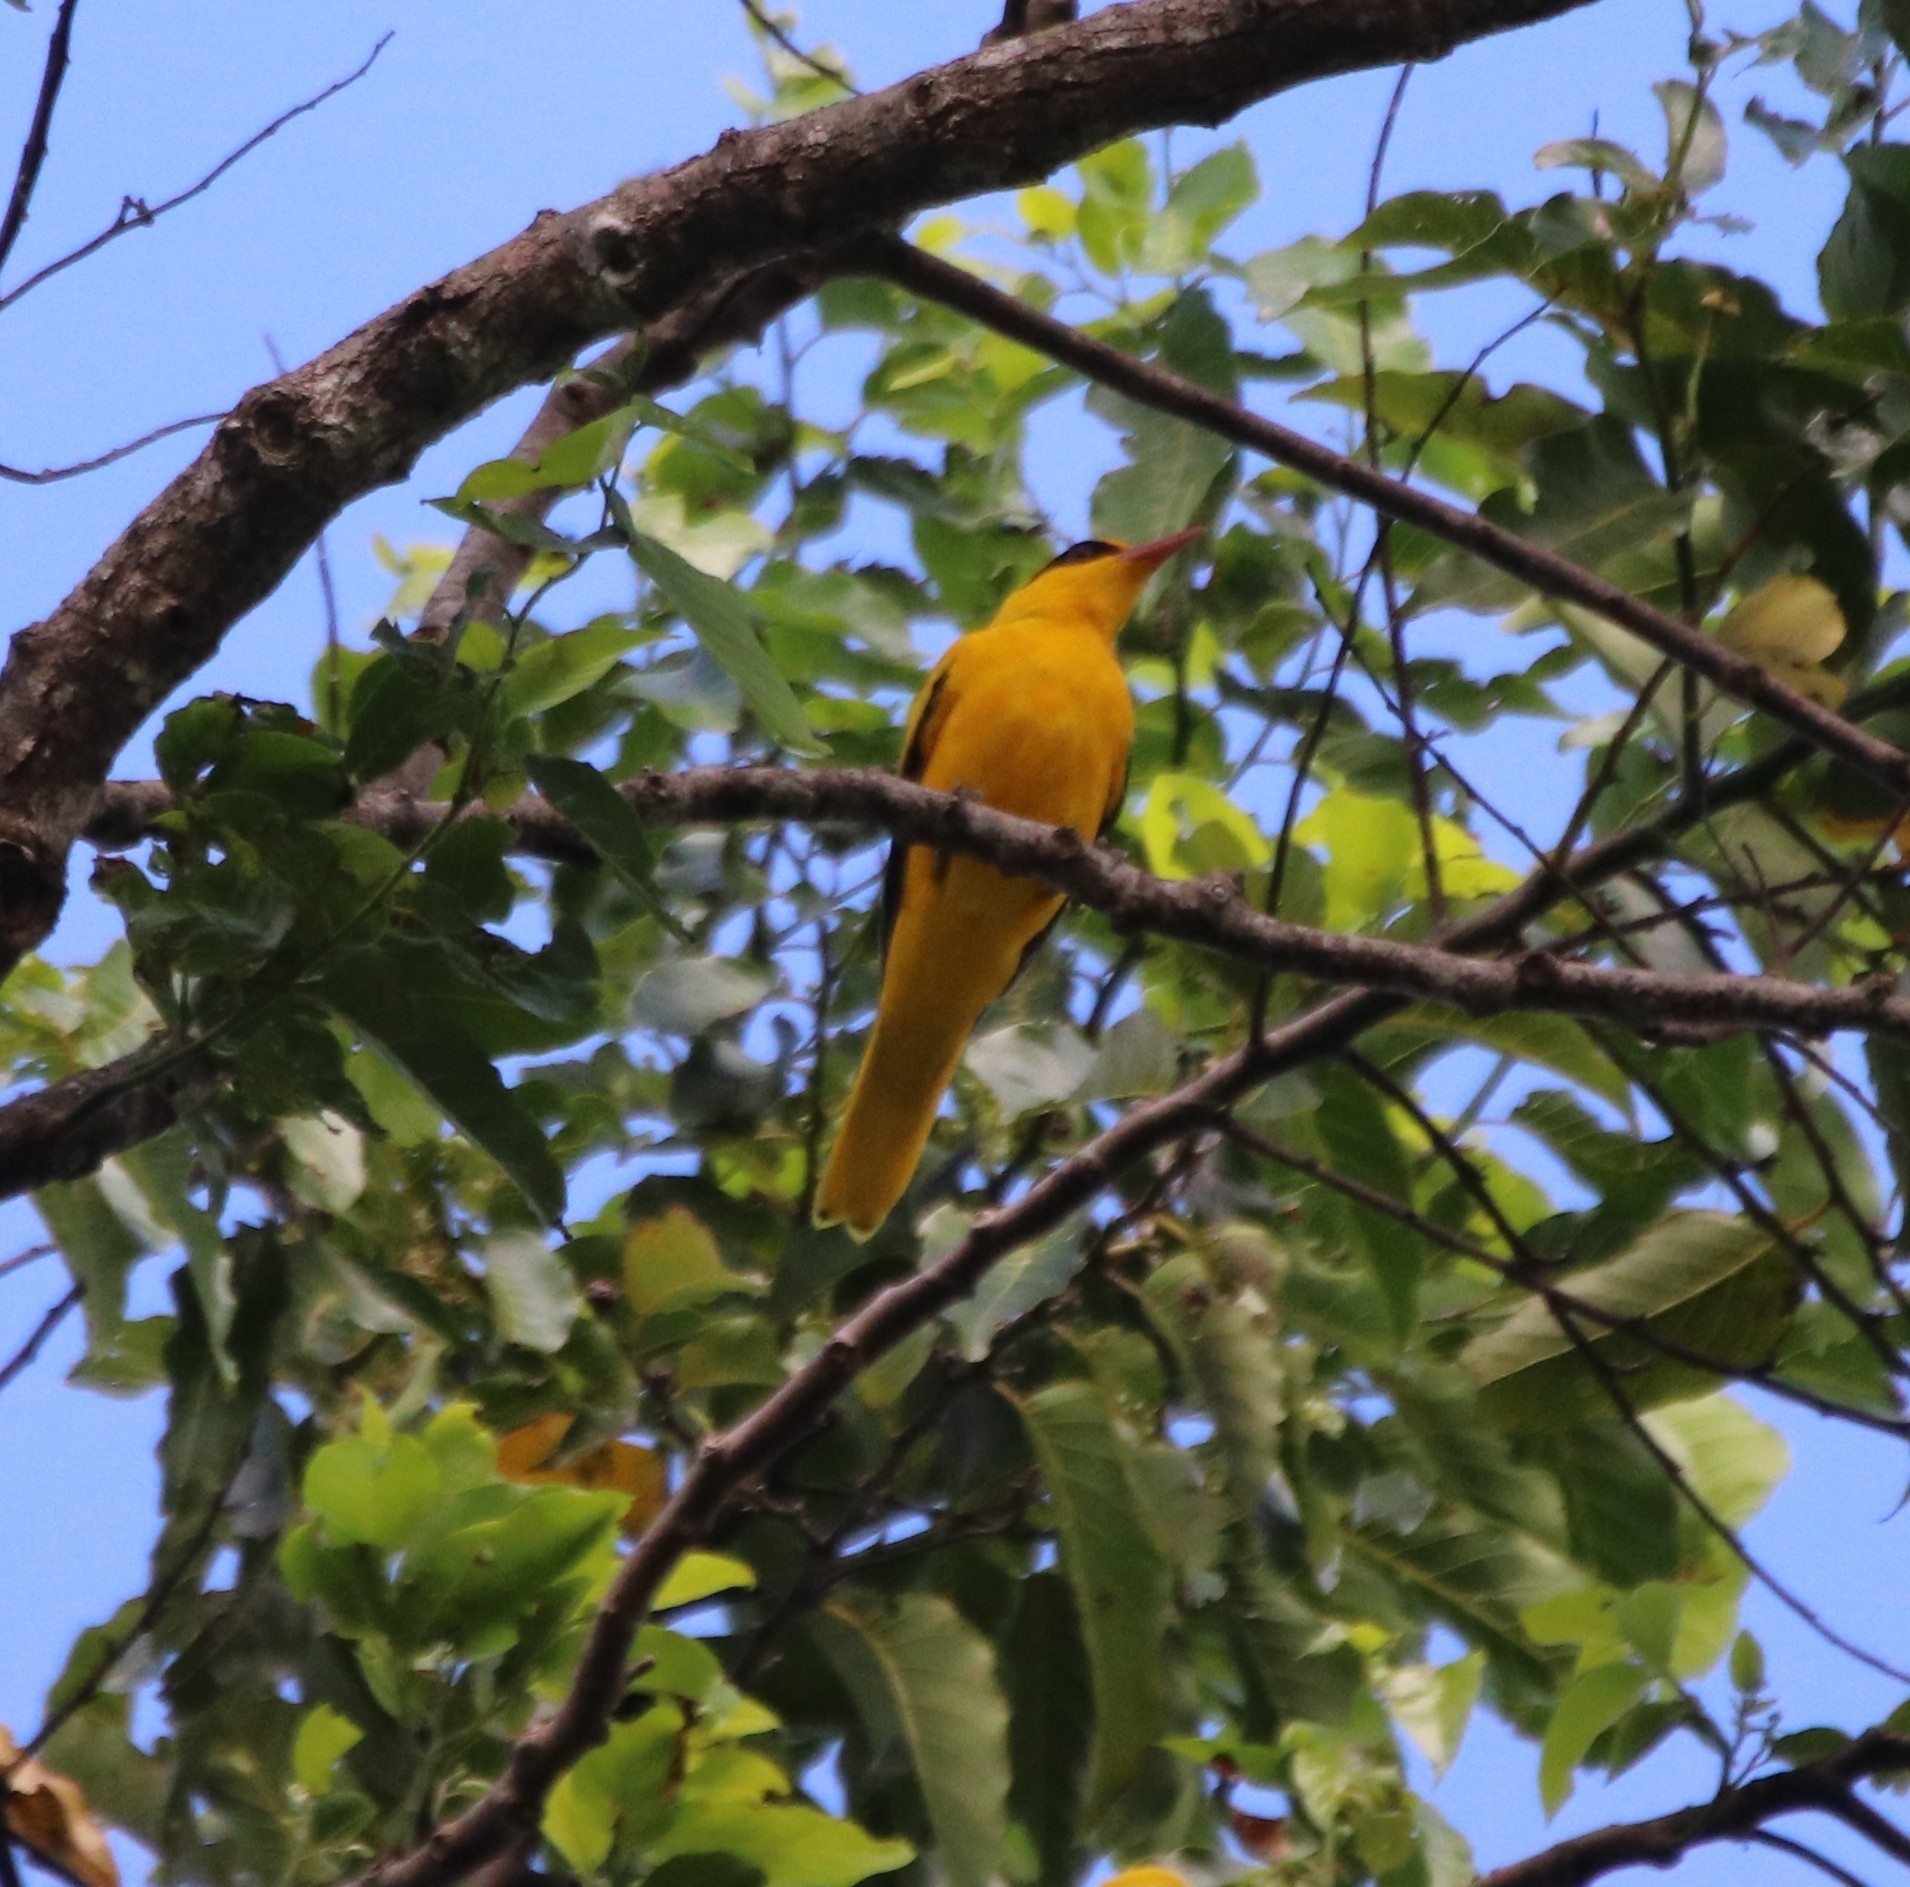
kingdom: Animalia
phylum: Chordata
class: Aves
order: Passeriformes
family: Oriolidae
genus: Oriolus
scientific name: Oriolus chinensis
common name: Black-naped oriole
